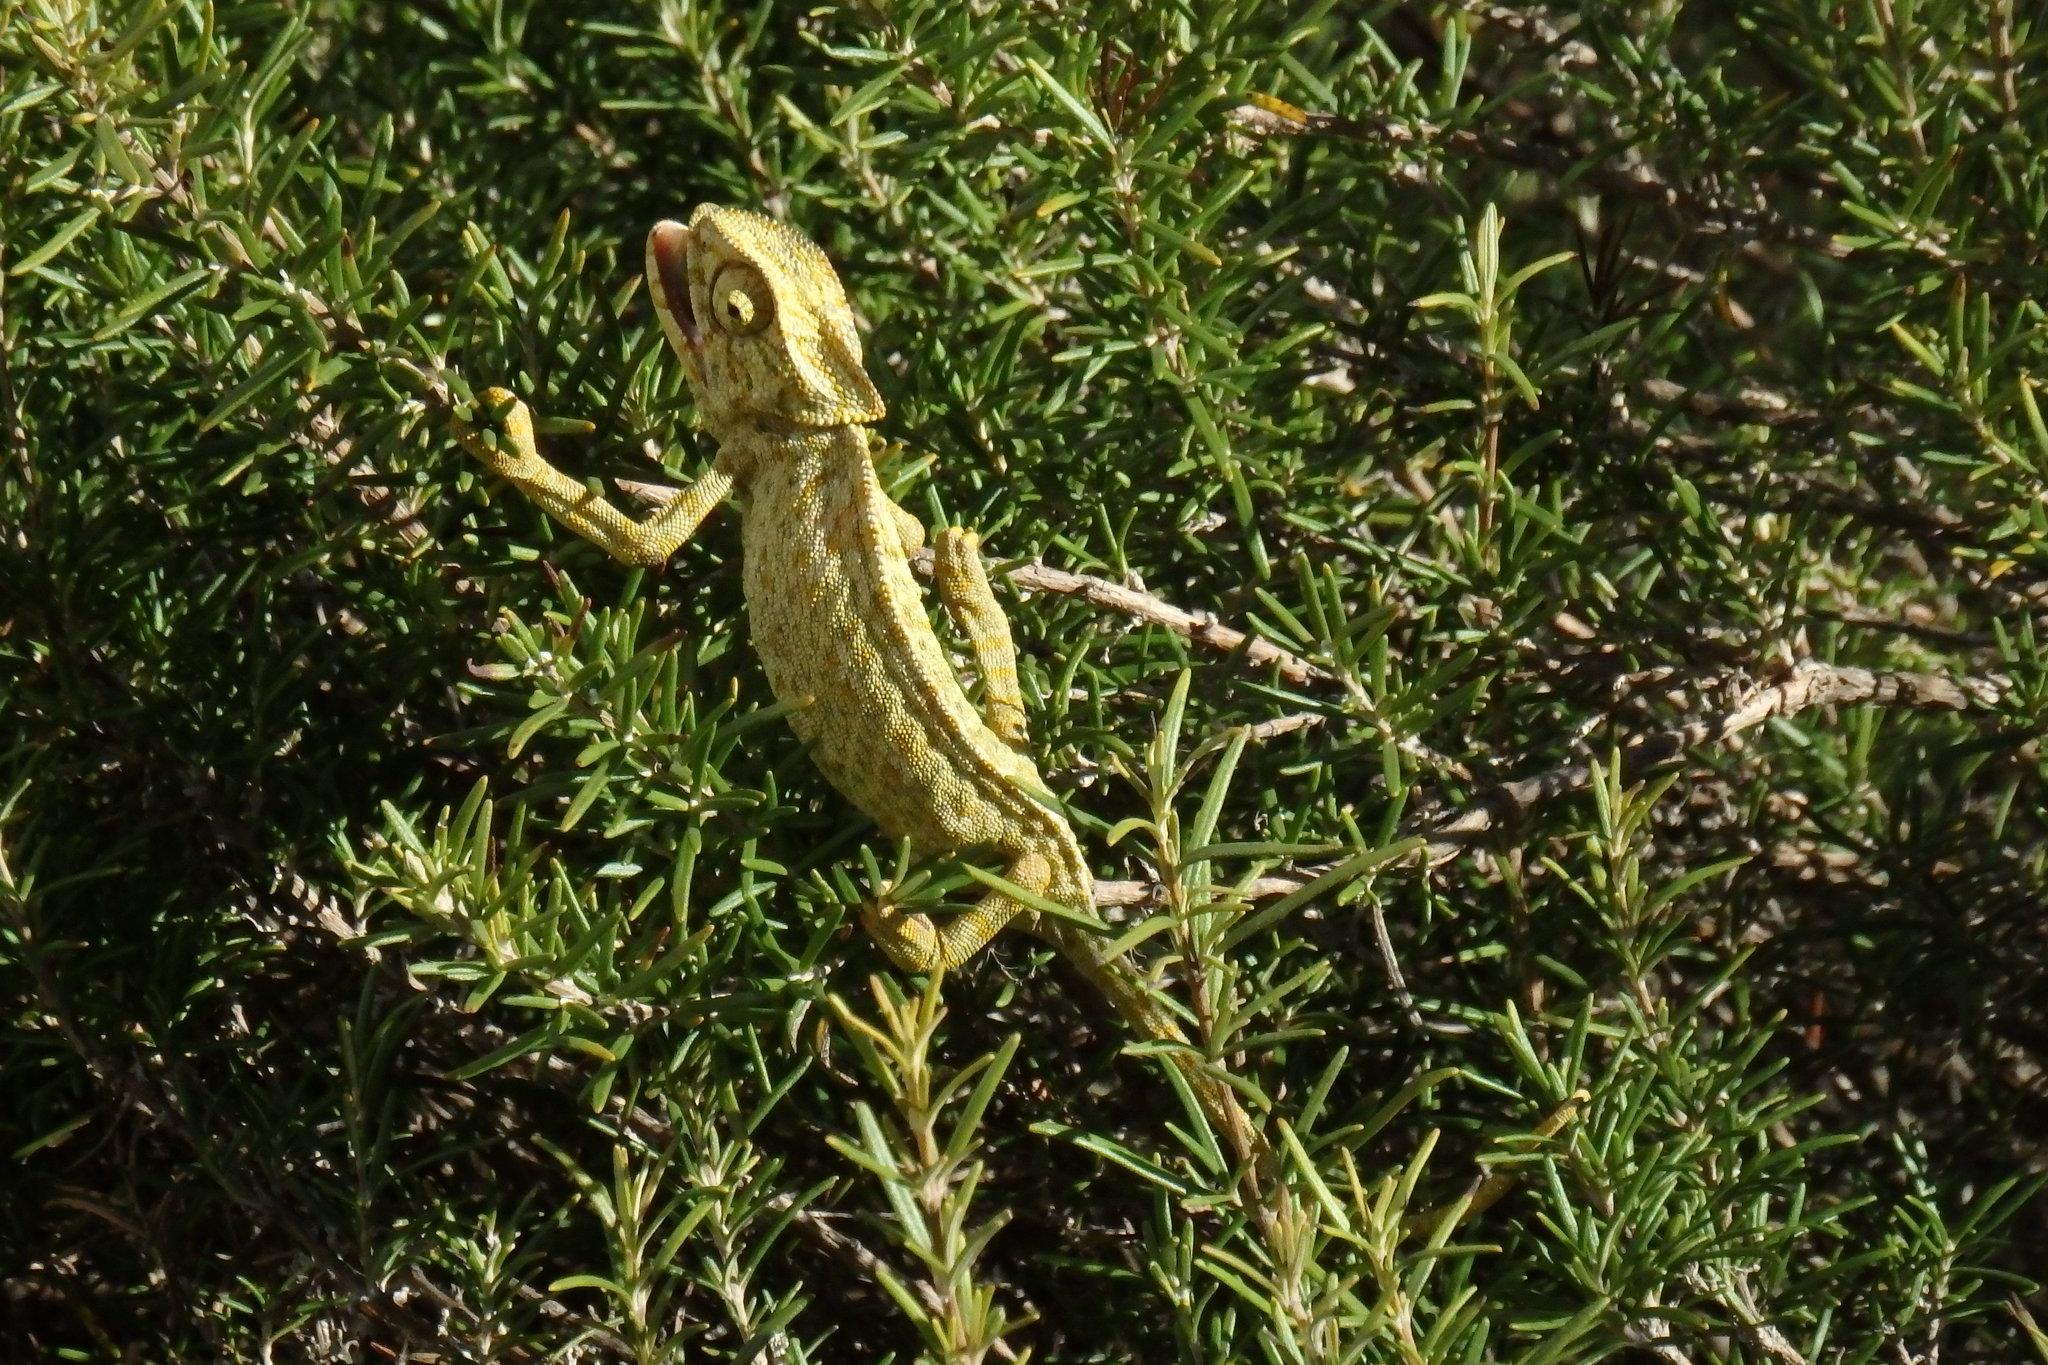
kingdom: Animalia
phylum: Chordata
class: Squamata
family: Chamaeleonidae
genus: Chamaeleo
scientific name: Chamaeleo chamaeleon
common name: Mediterranean chameleon
